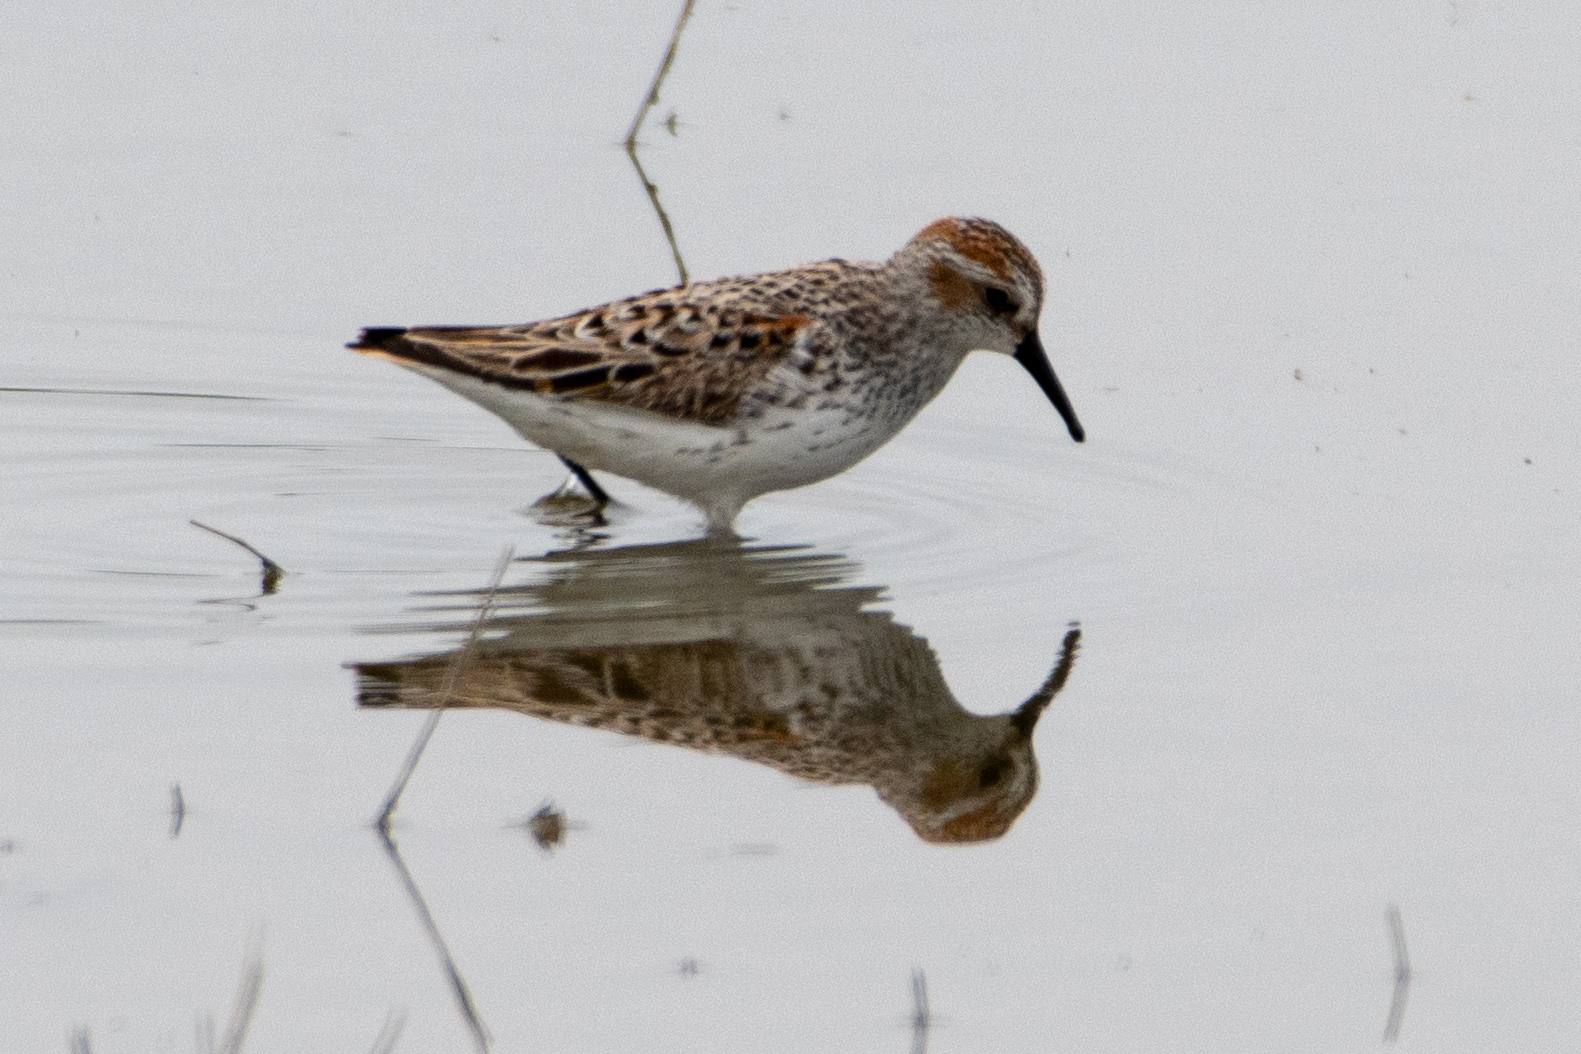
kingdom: Animalia
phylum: Chordata
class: Aves
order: Charadriiformes
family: Scolopacidae
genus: Calidris
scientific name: Calidris mauri
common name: Western sandpiper
